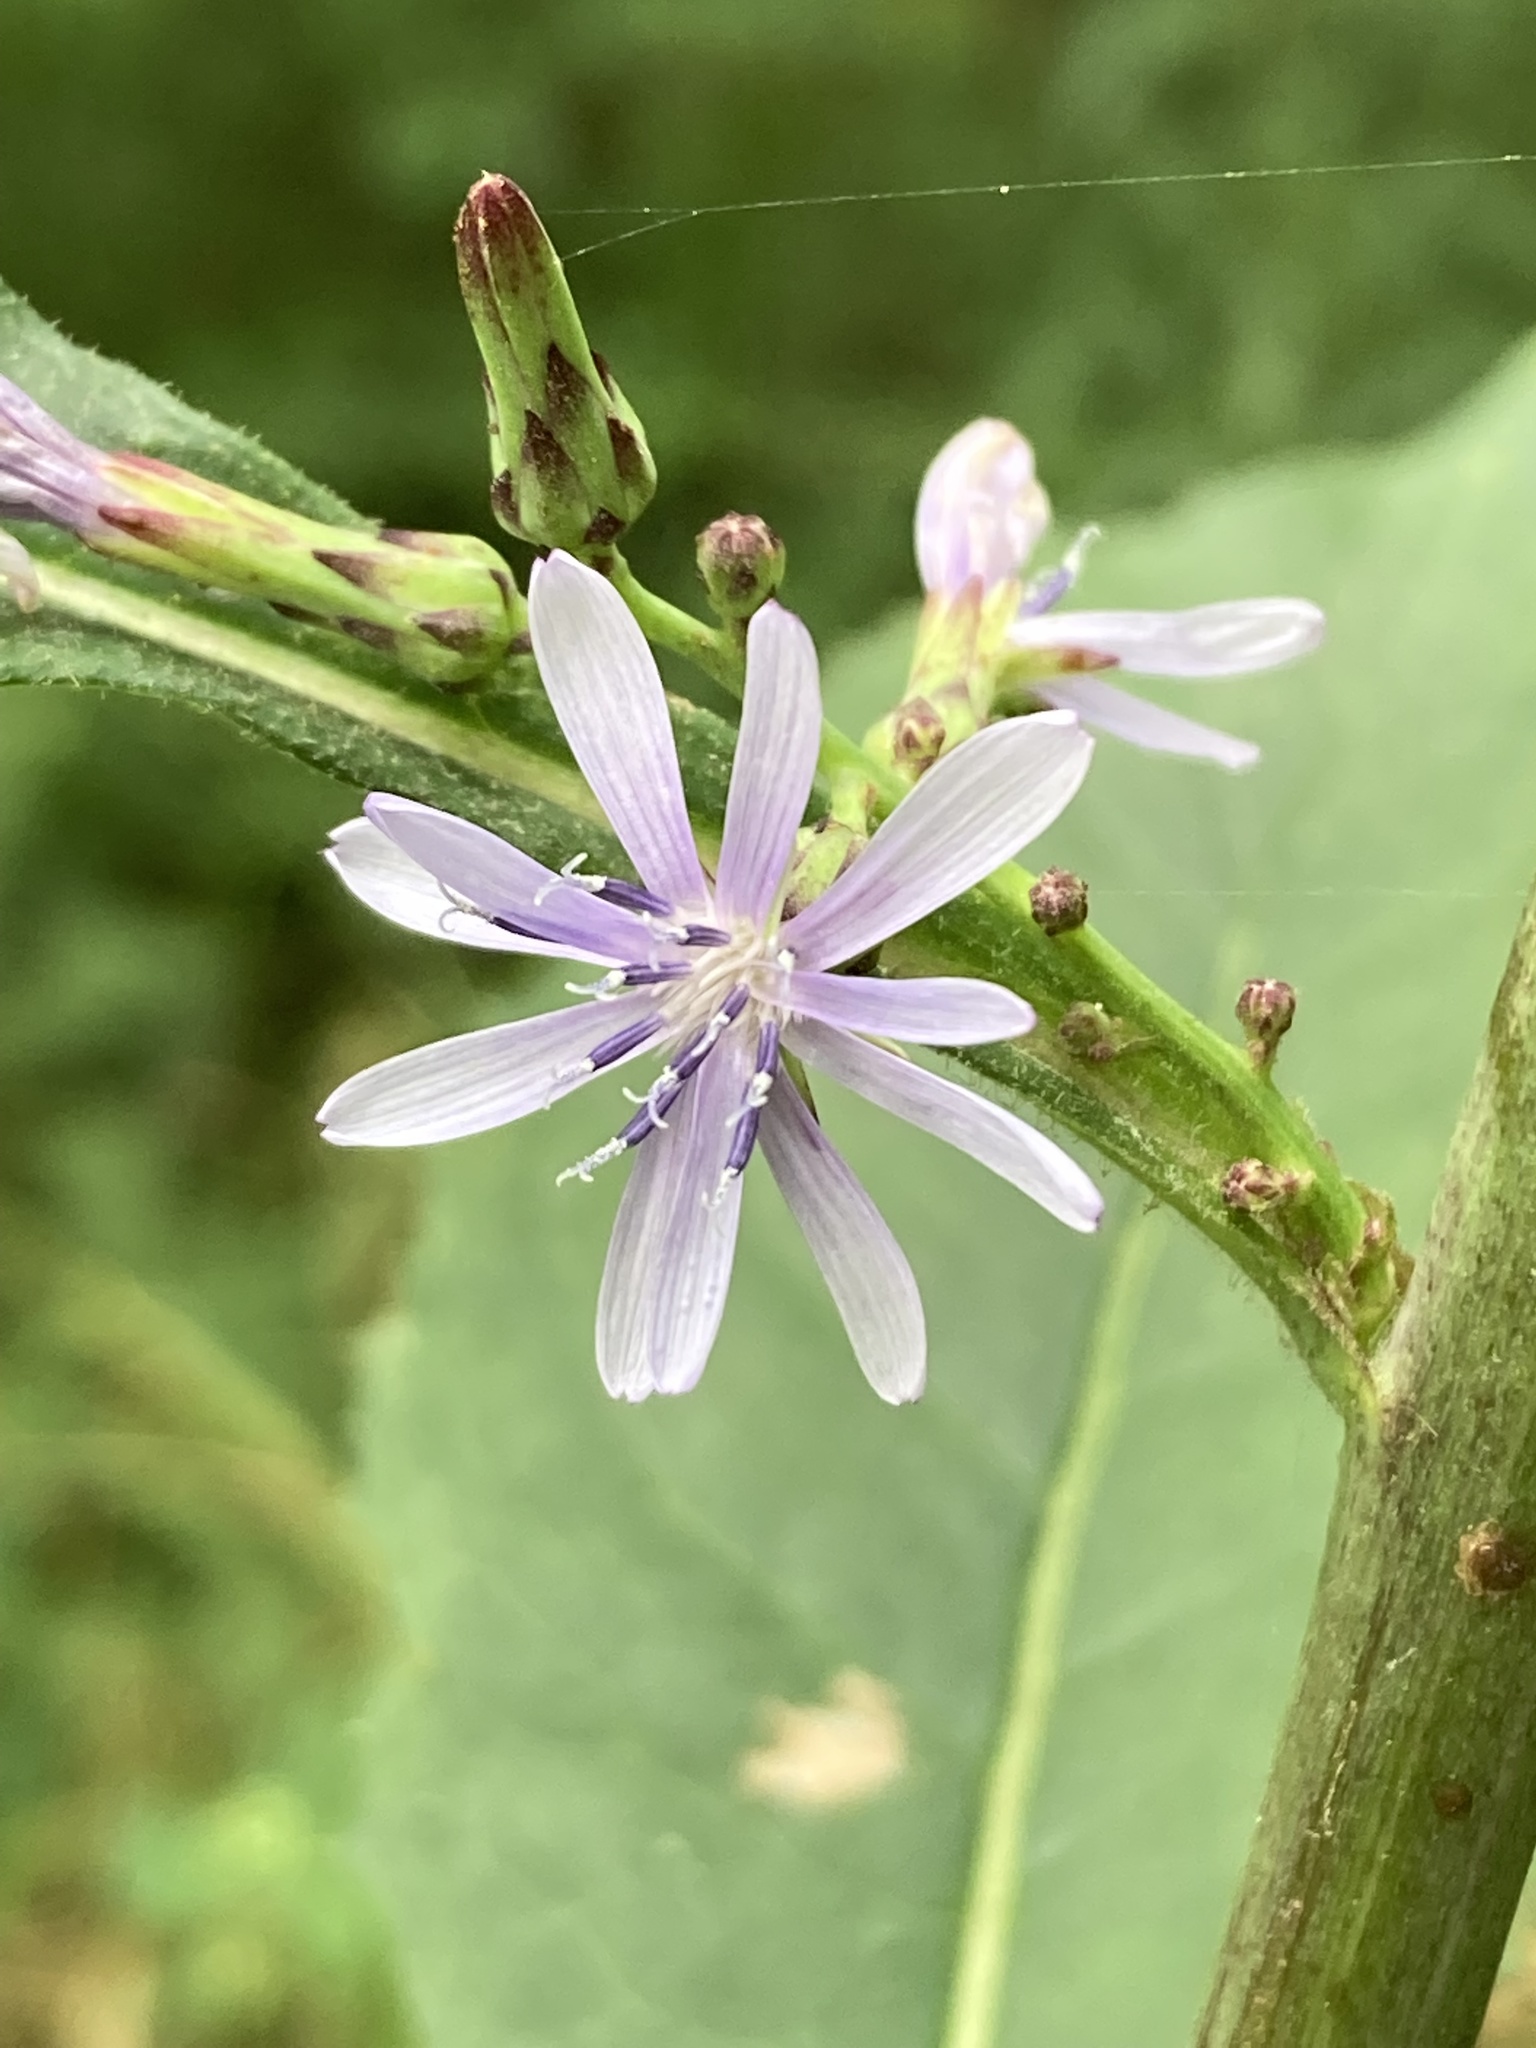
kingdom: Plantae
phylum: Tracheophyta
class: Magnoliopsida
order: Asterales
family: Asteraceae
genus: Lactuca
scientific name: Lactuca floridana
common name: Woodland lettuce
